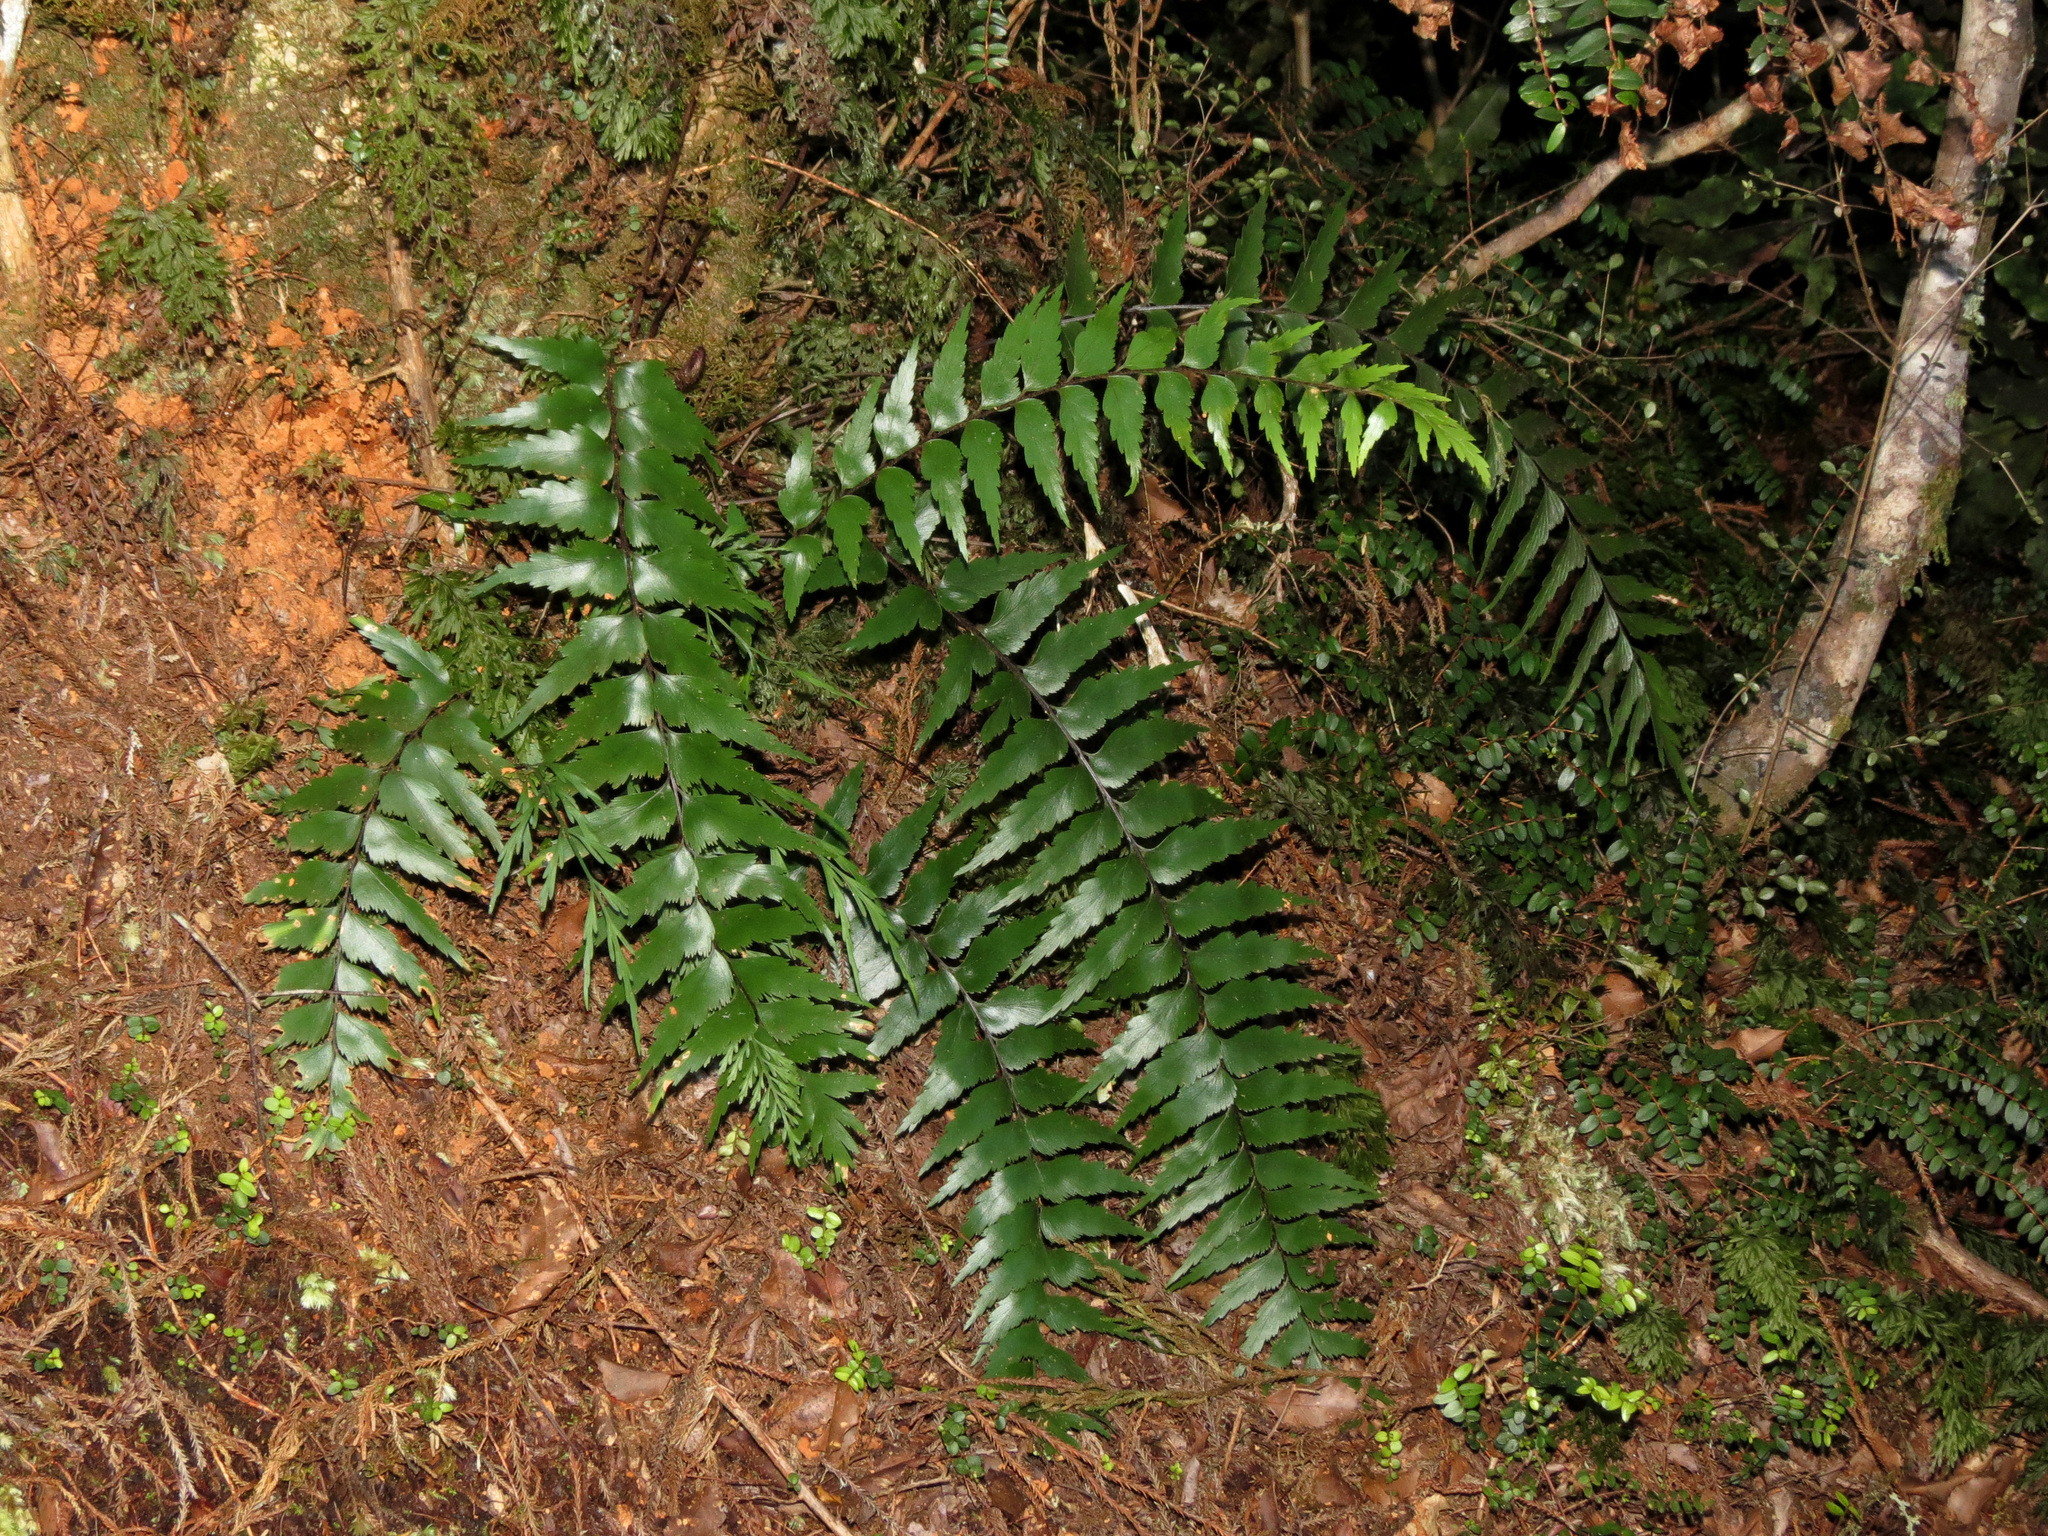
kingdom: Plantae
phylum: Tracheophyta
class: Polypodiopsida
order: Polypodiales
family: Aspleniaceae
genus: Asplenium
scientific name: Asplenium polyodon
